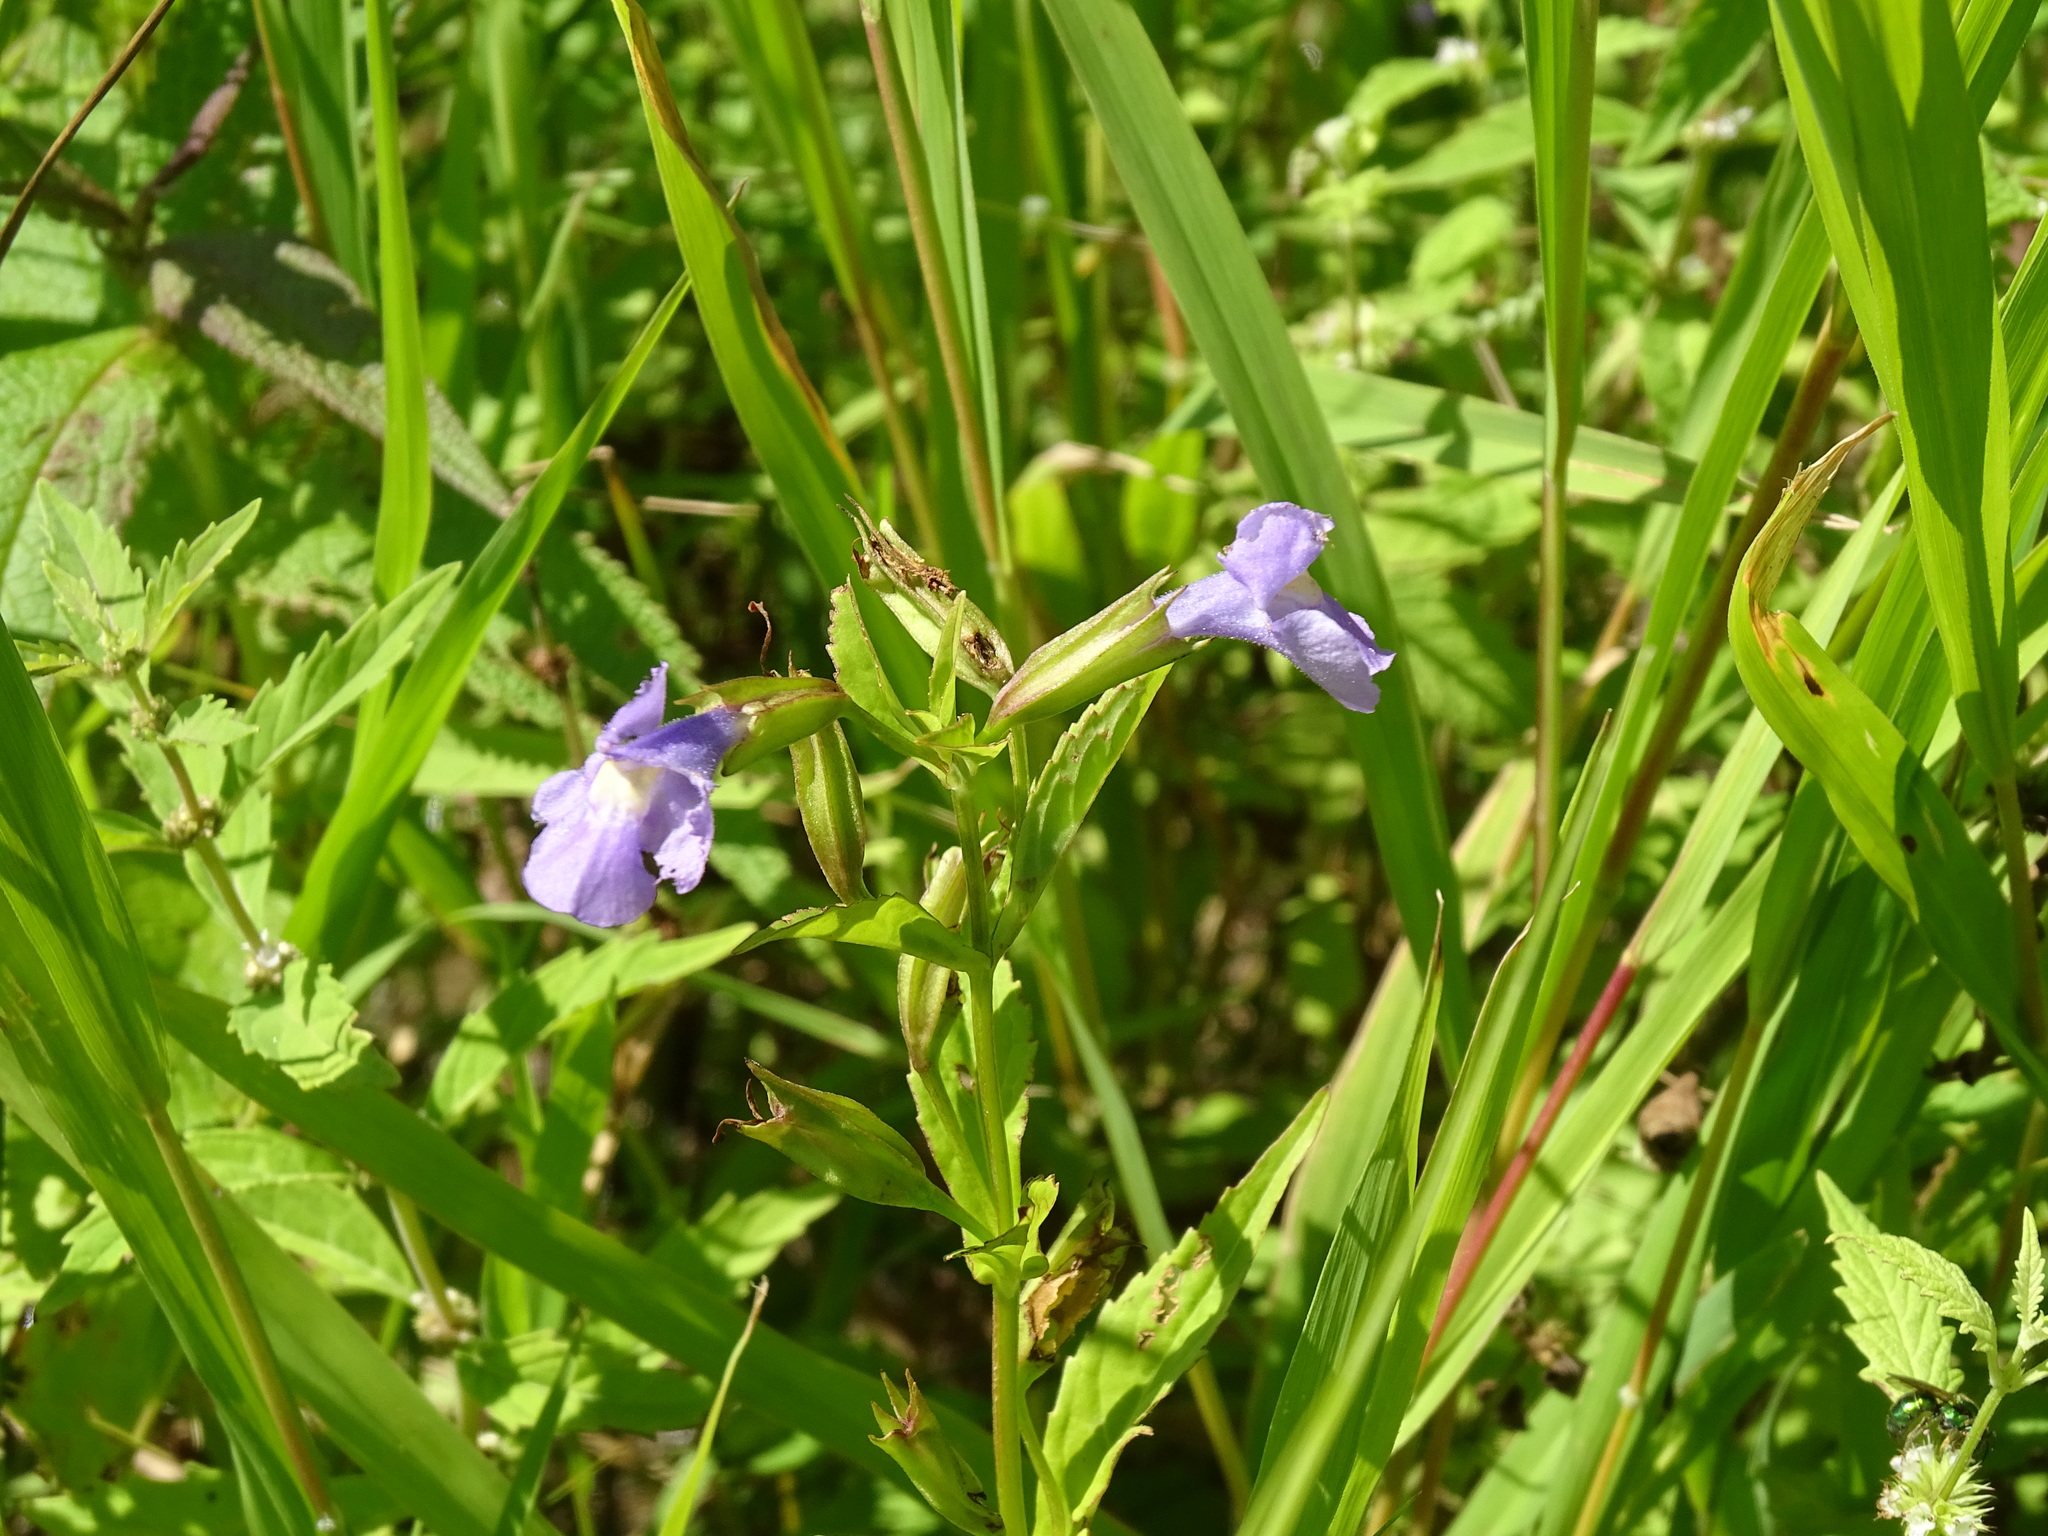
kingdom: Plantae
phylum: Tracheophyta
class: Magnoliopsida
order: Lamiales
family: Phrymaceae
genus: Mimulus
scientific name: Mimulus ringens
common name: Allegheny monkeyflower
